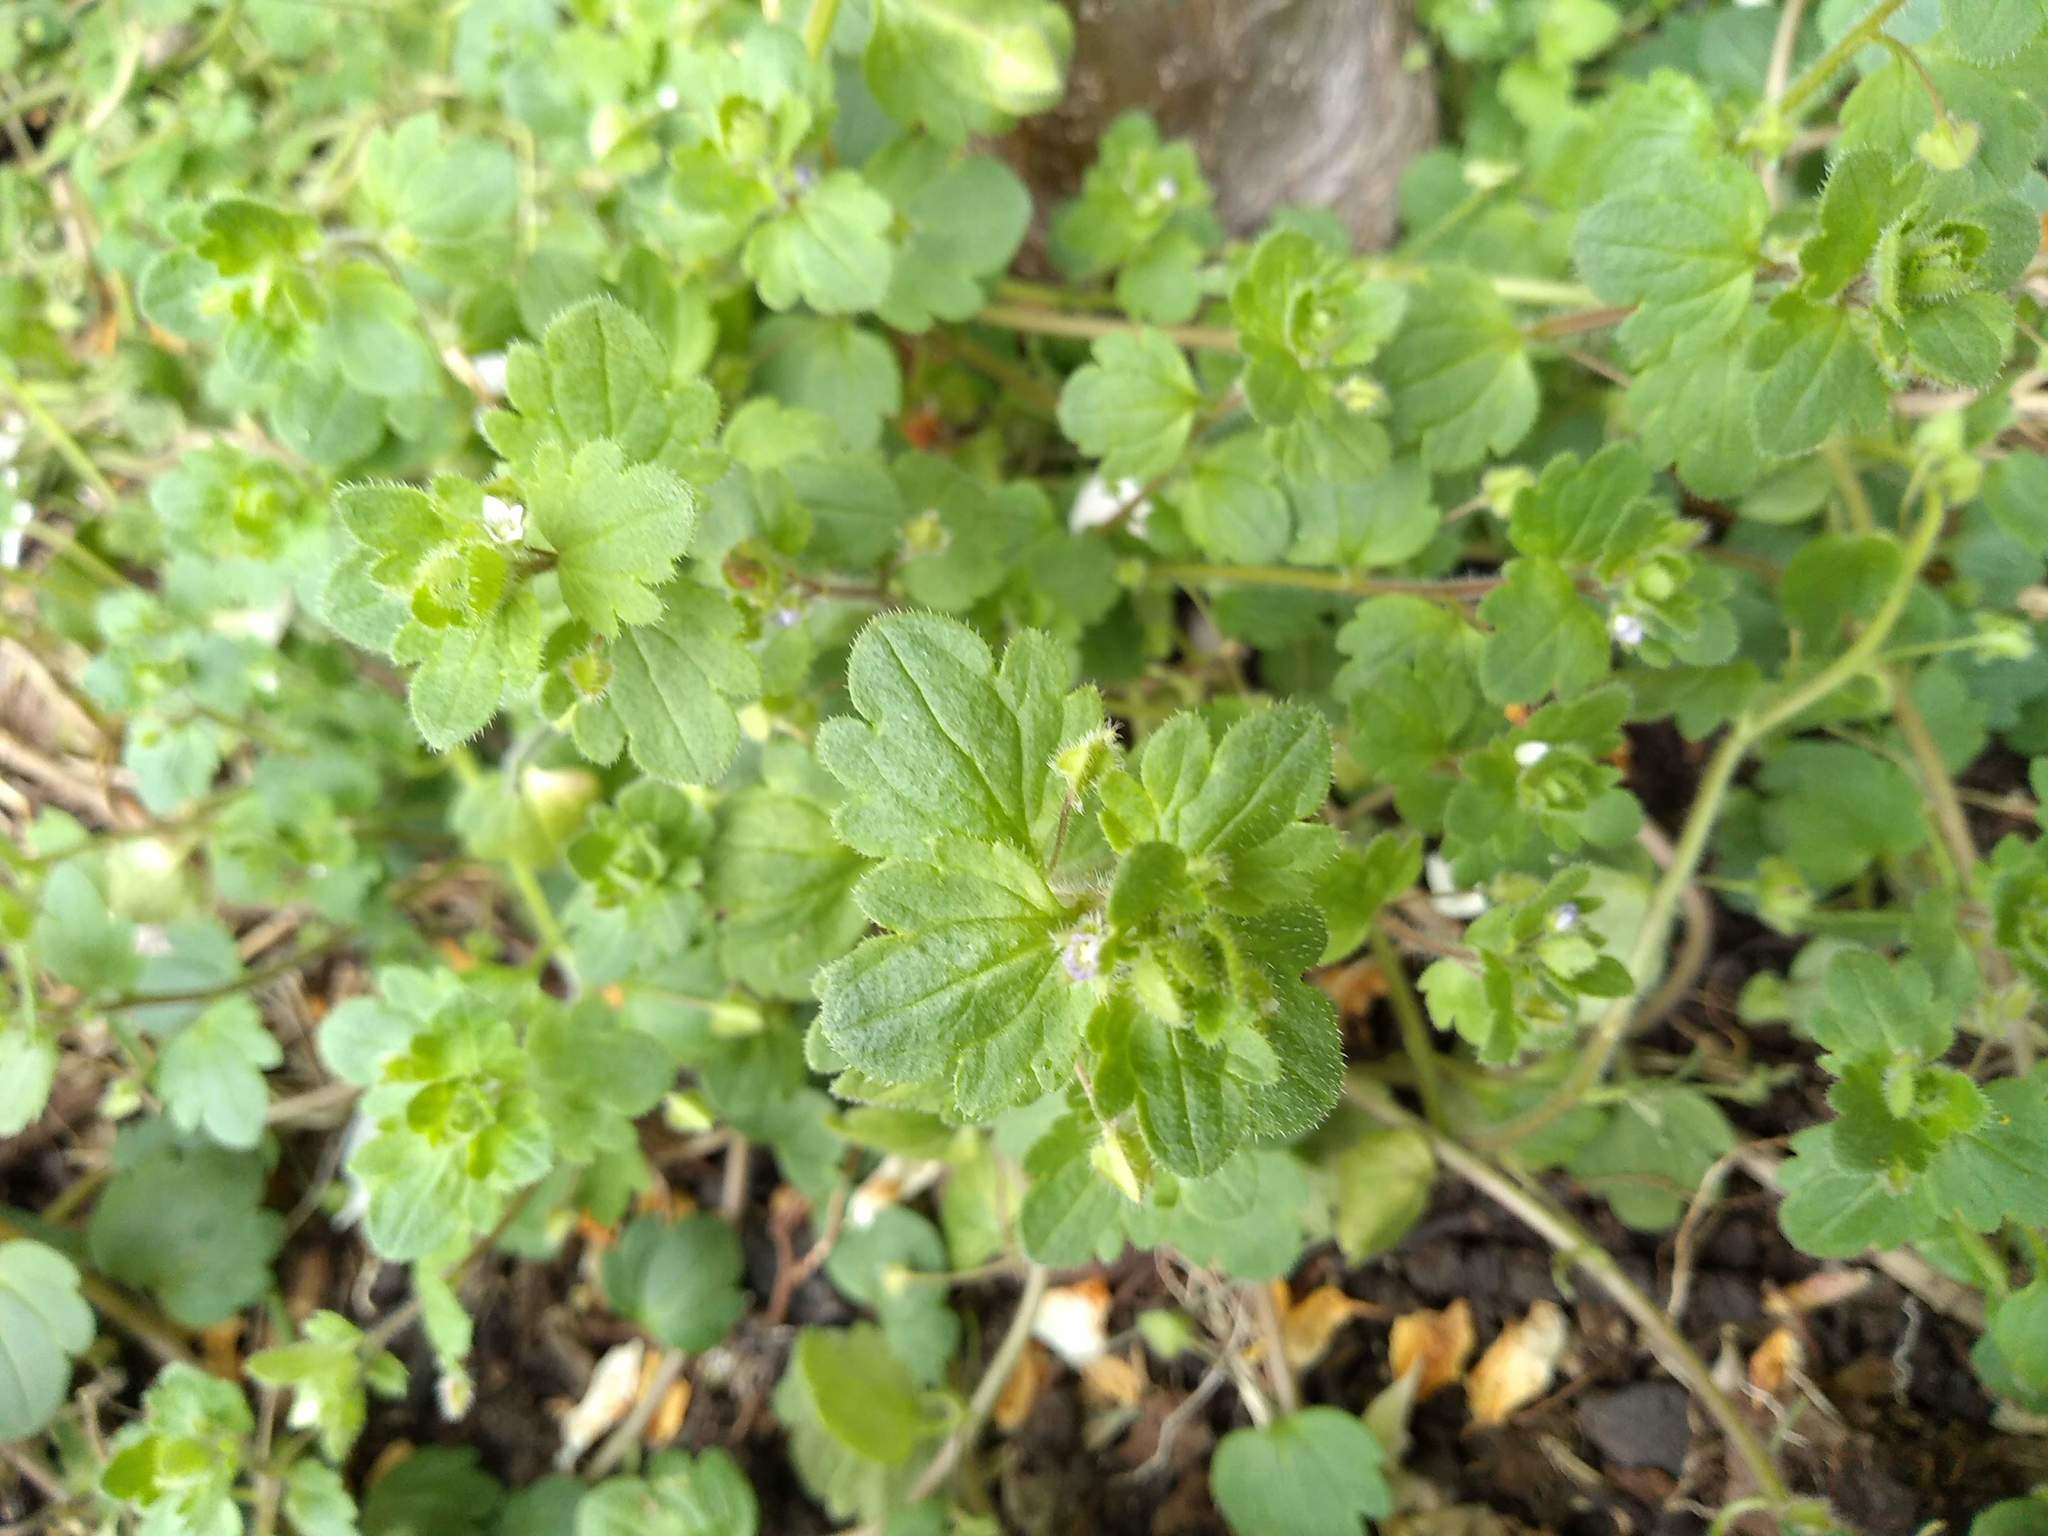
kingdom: Plantae
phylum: Tracheophyta
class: Magnoliopsida
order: Lamiales
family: Plantaginaceae
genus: Veronica
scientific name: Veronica sublobata
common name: False ivy-leaved speedwell
